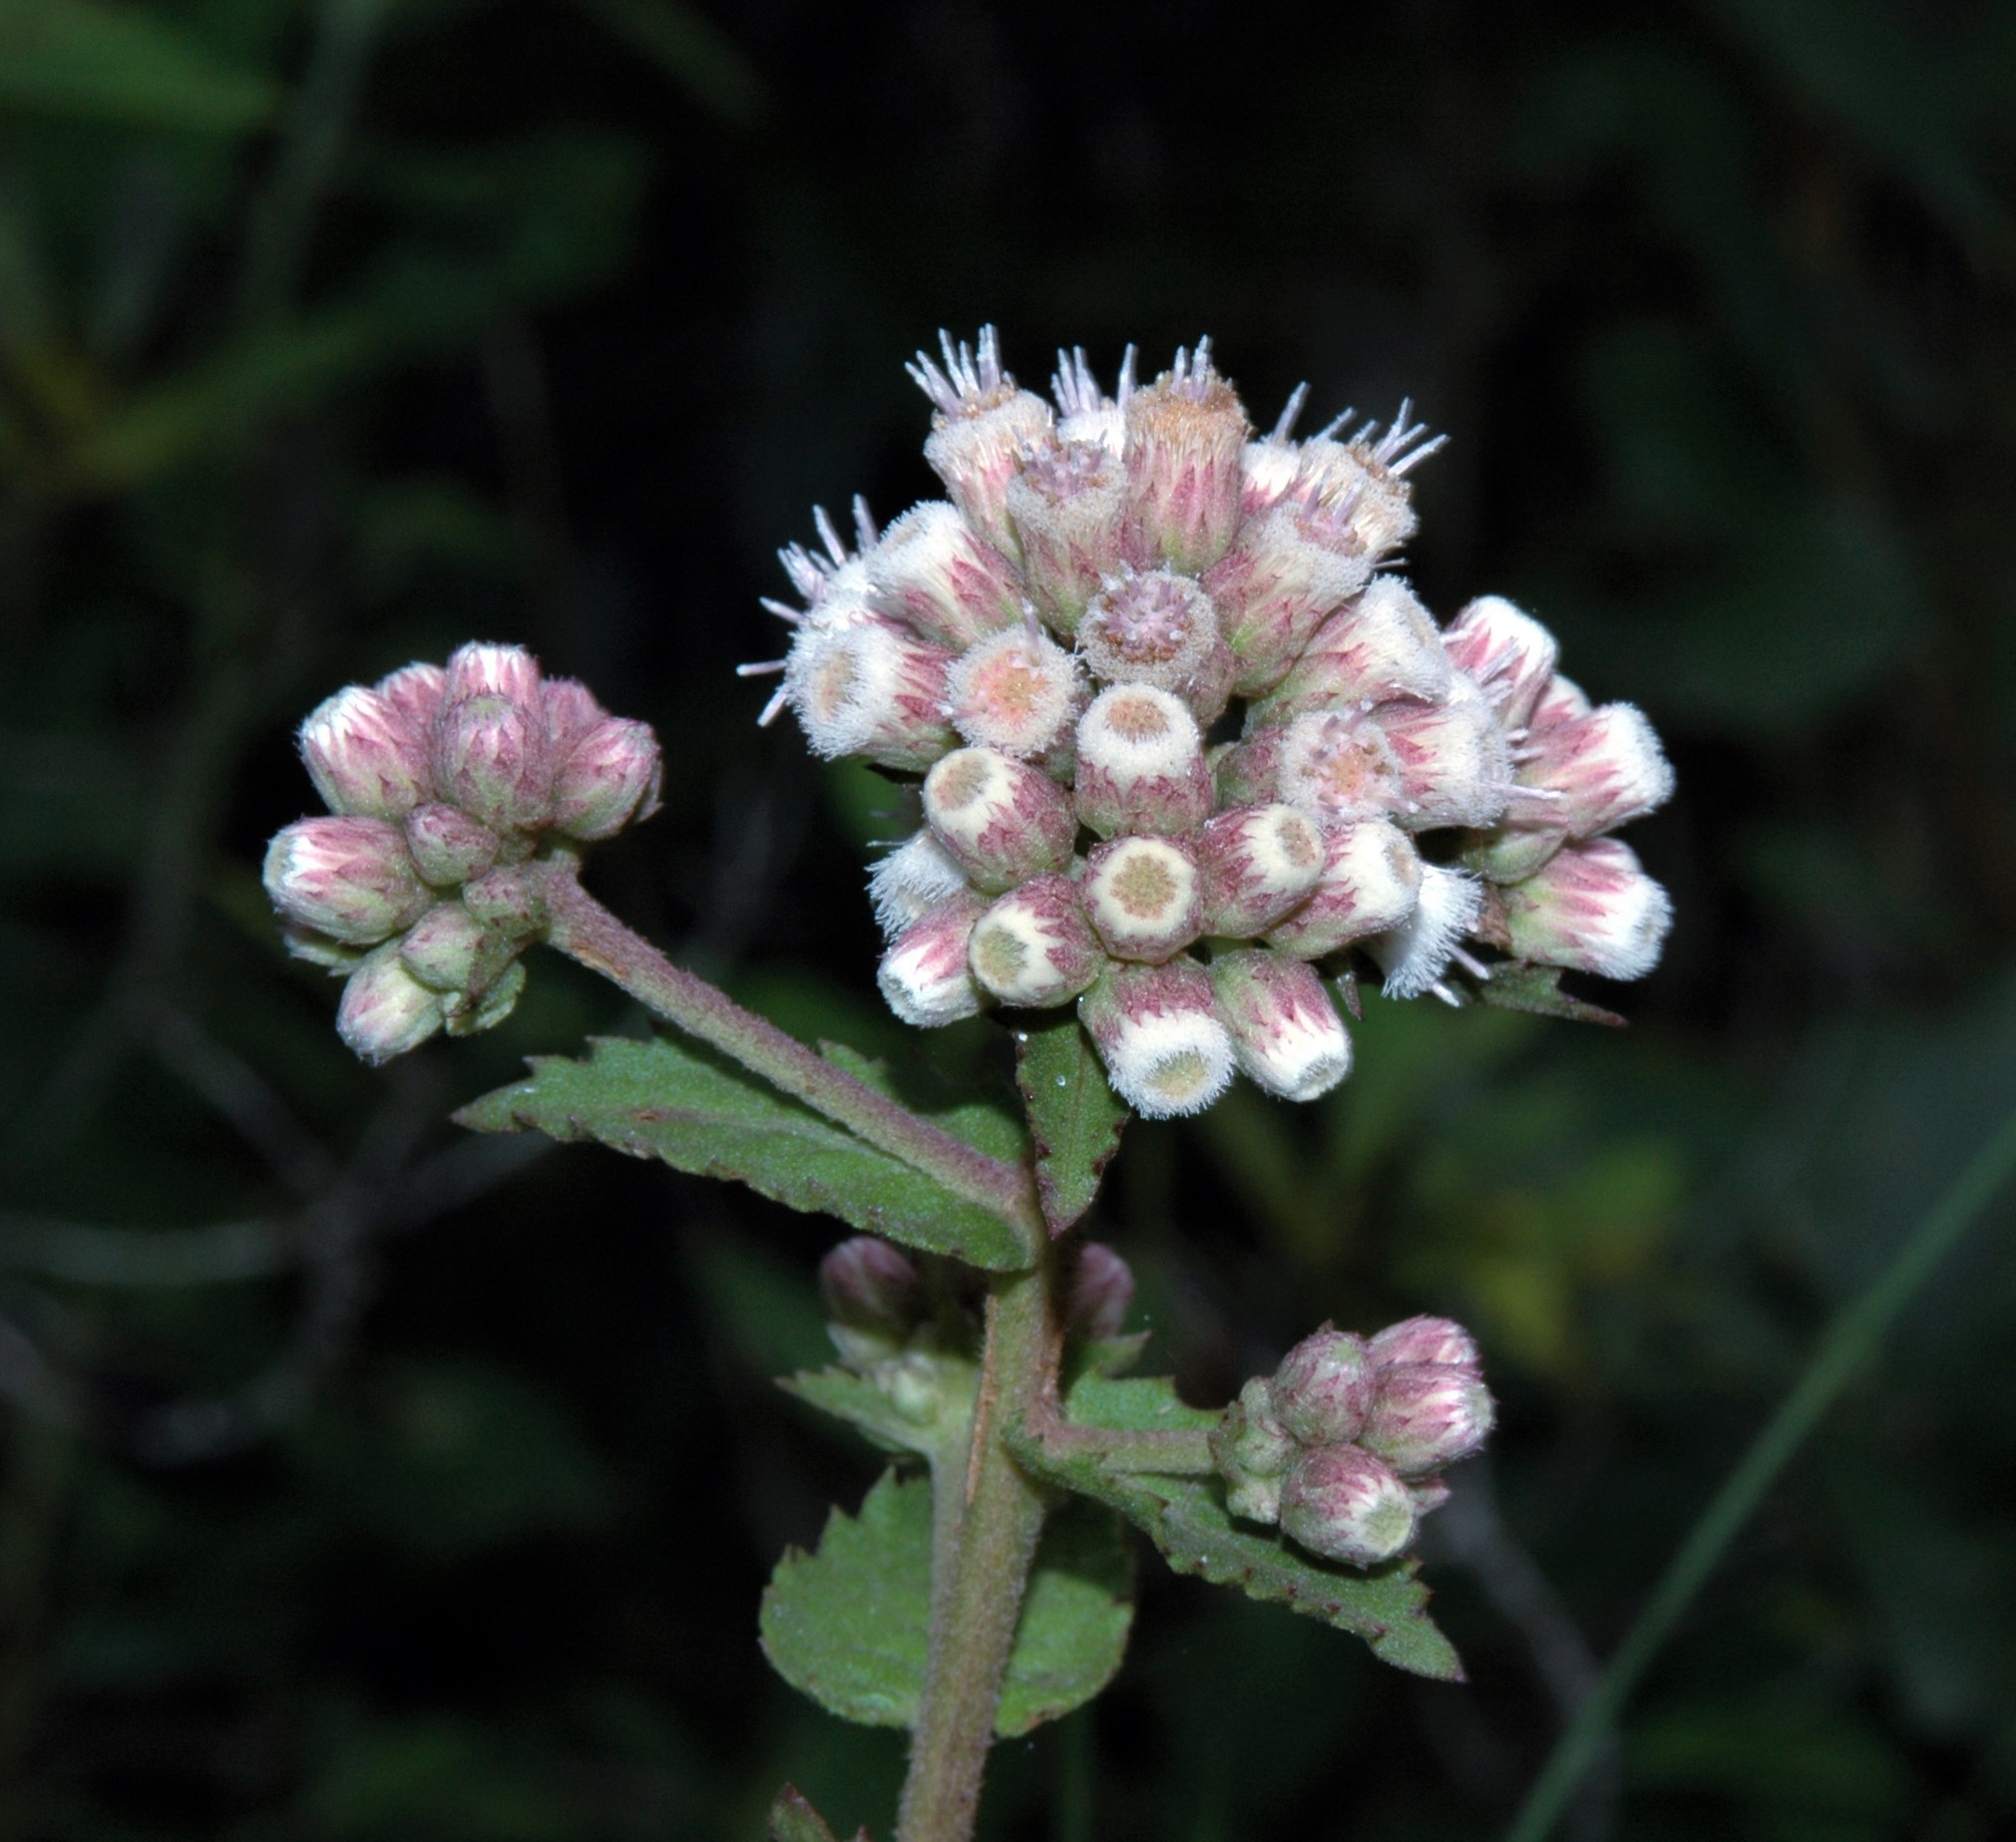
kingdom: Plantae
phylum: Tracheophyta
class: Magnoliopsida
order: Asterales
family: Asteraceae
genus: Pluchea
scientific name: Pluchea foetida
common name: Stinking camphorweed
